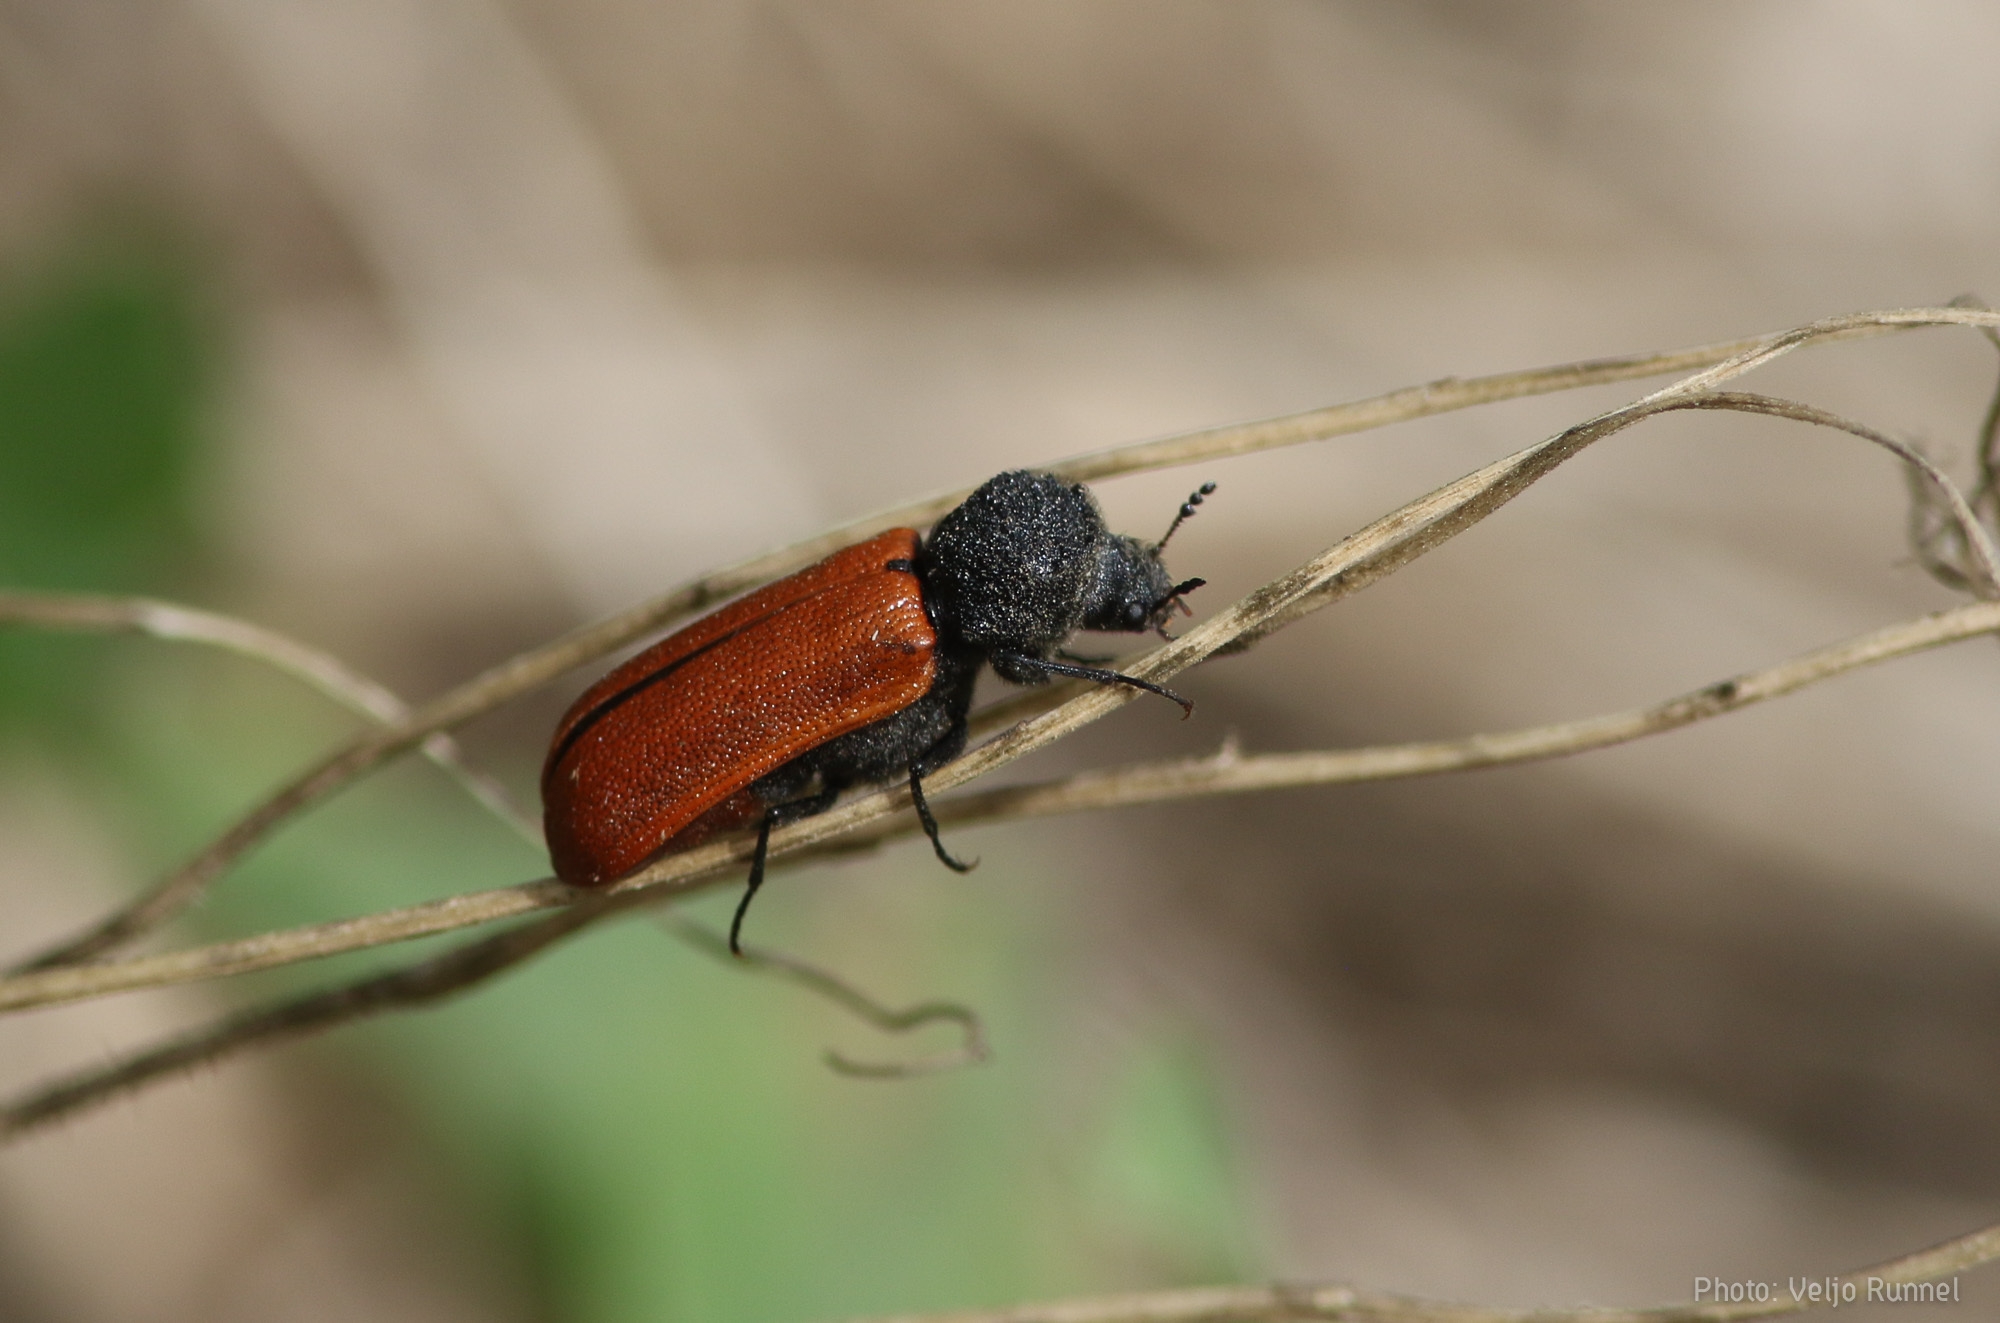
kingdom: Animalia
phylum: Arthropoda
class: Insecta
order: Coleoptera
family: Bostrichidae
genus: Bostrichus
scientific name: Bostrichus capucinus
